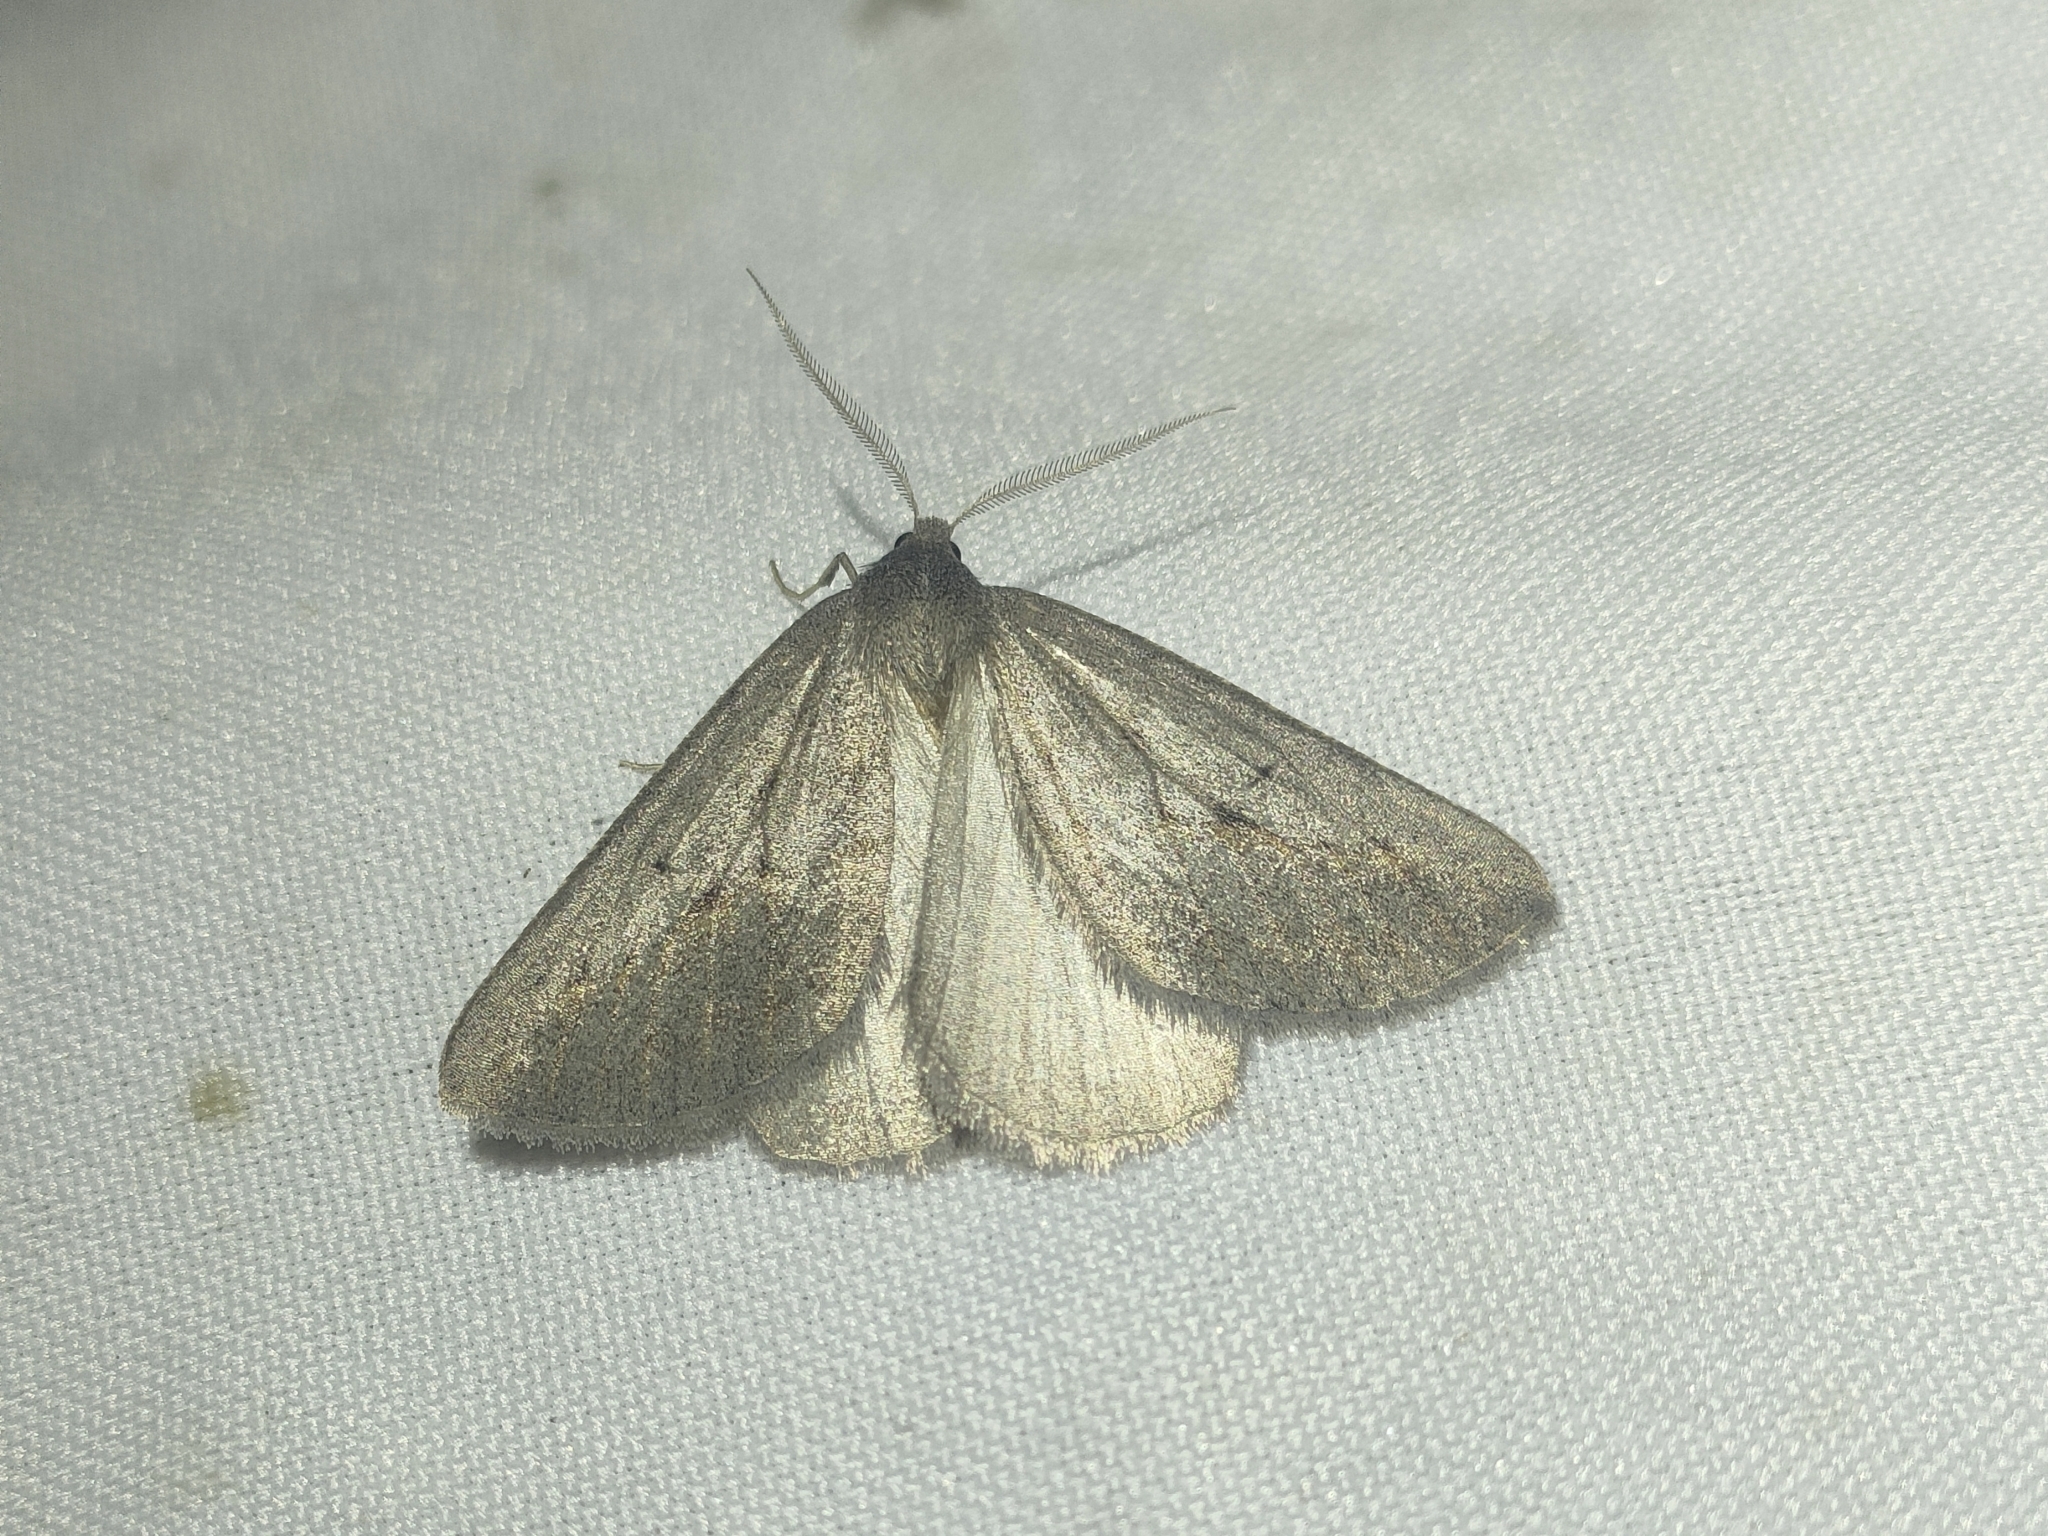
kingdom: Animalia
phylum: Arthropoda
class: Insecta
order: Lepidoptera
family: Geometridae
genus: Chemerina
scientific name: Chemerina caliginearia
